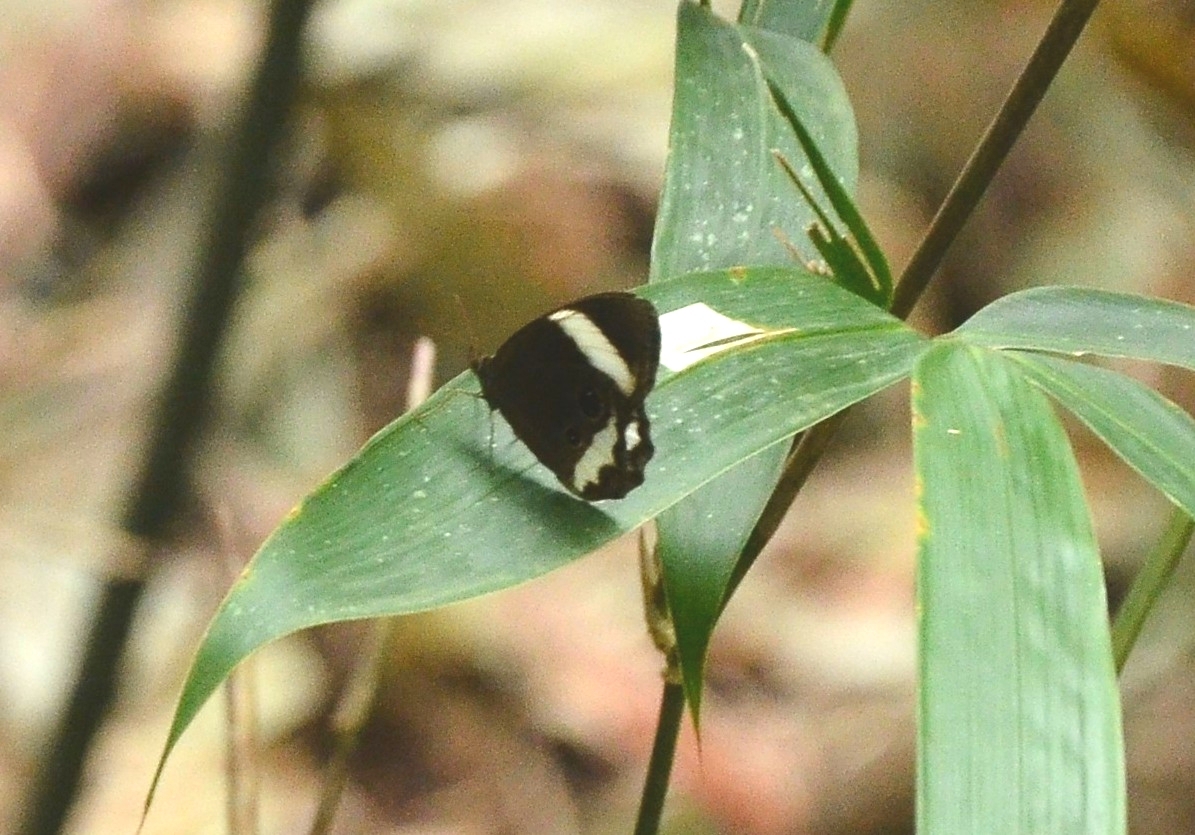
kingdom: Animalia
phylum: Arthropoda
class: Insecta
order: Lepidoptera
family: Nymphalidae
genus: Zipaetis
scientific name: Zipaetis saitis
